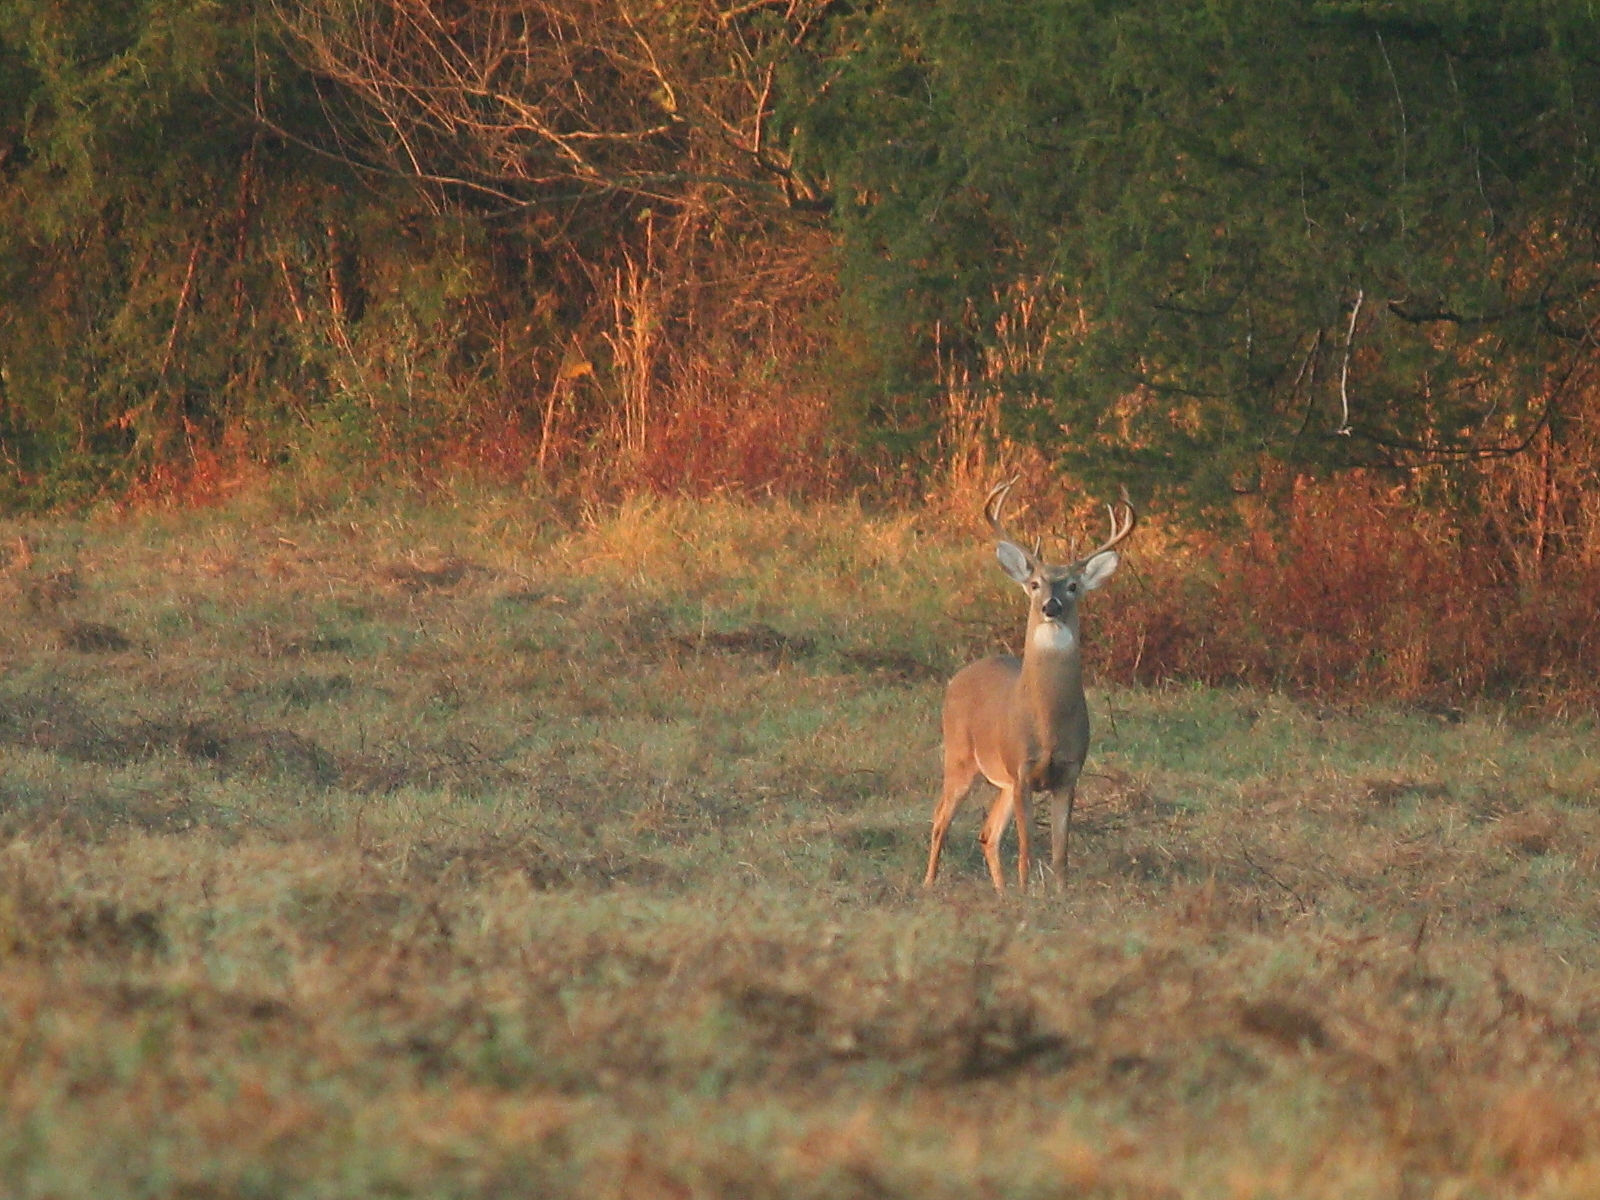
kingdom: Animalia
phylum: Chordata
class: Mammalia
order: Artiodactyla
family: Cervidae
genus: Odocoileus
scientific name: Odocoileus virginianus
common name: White-tailed deer
